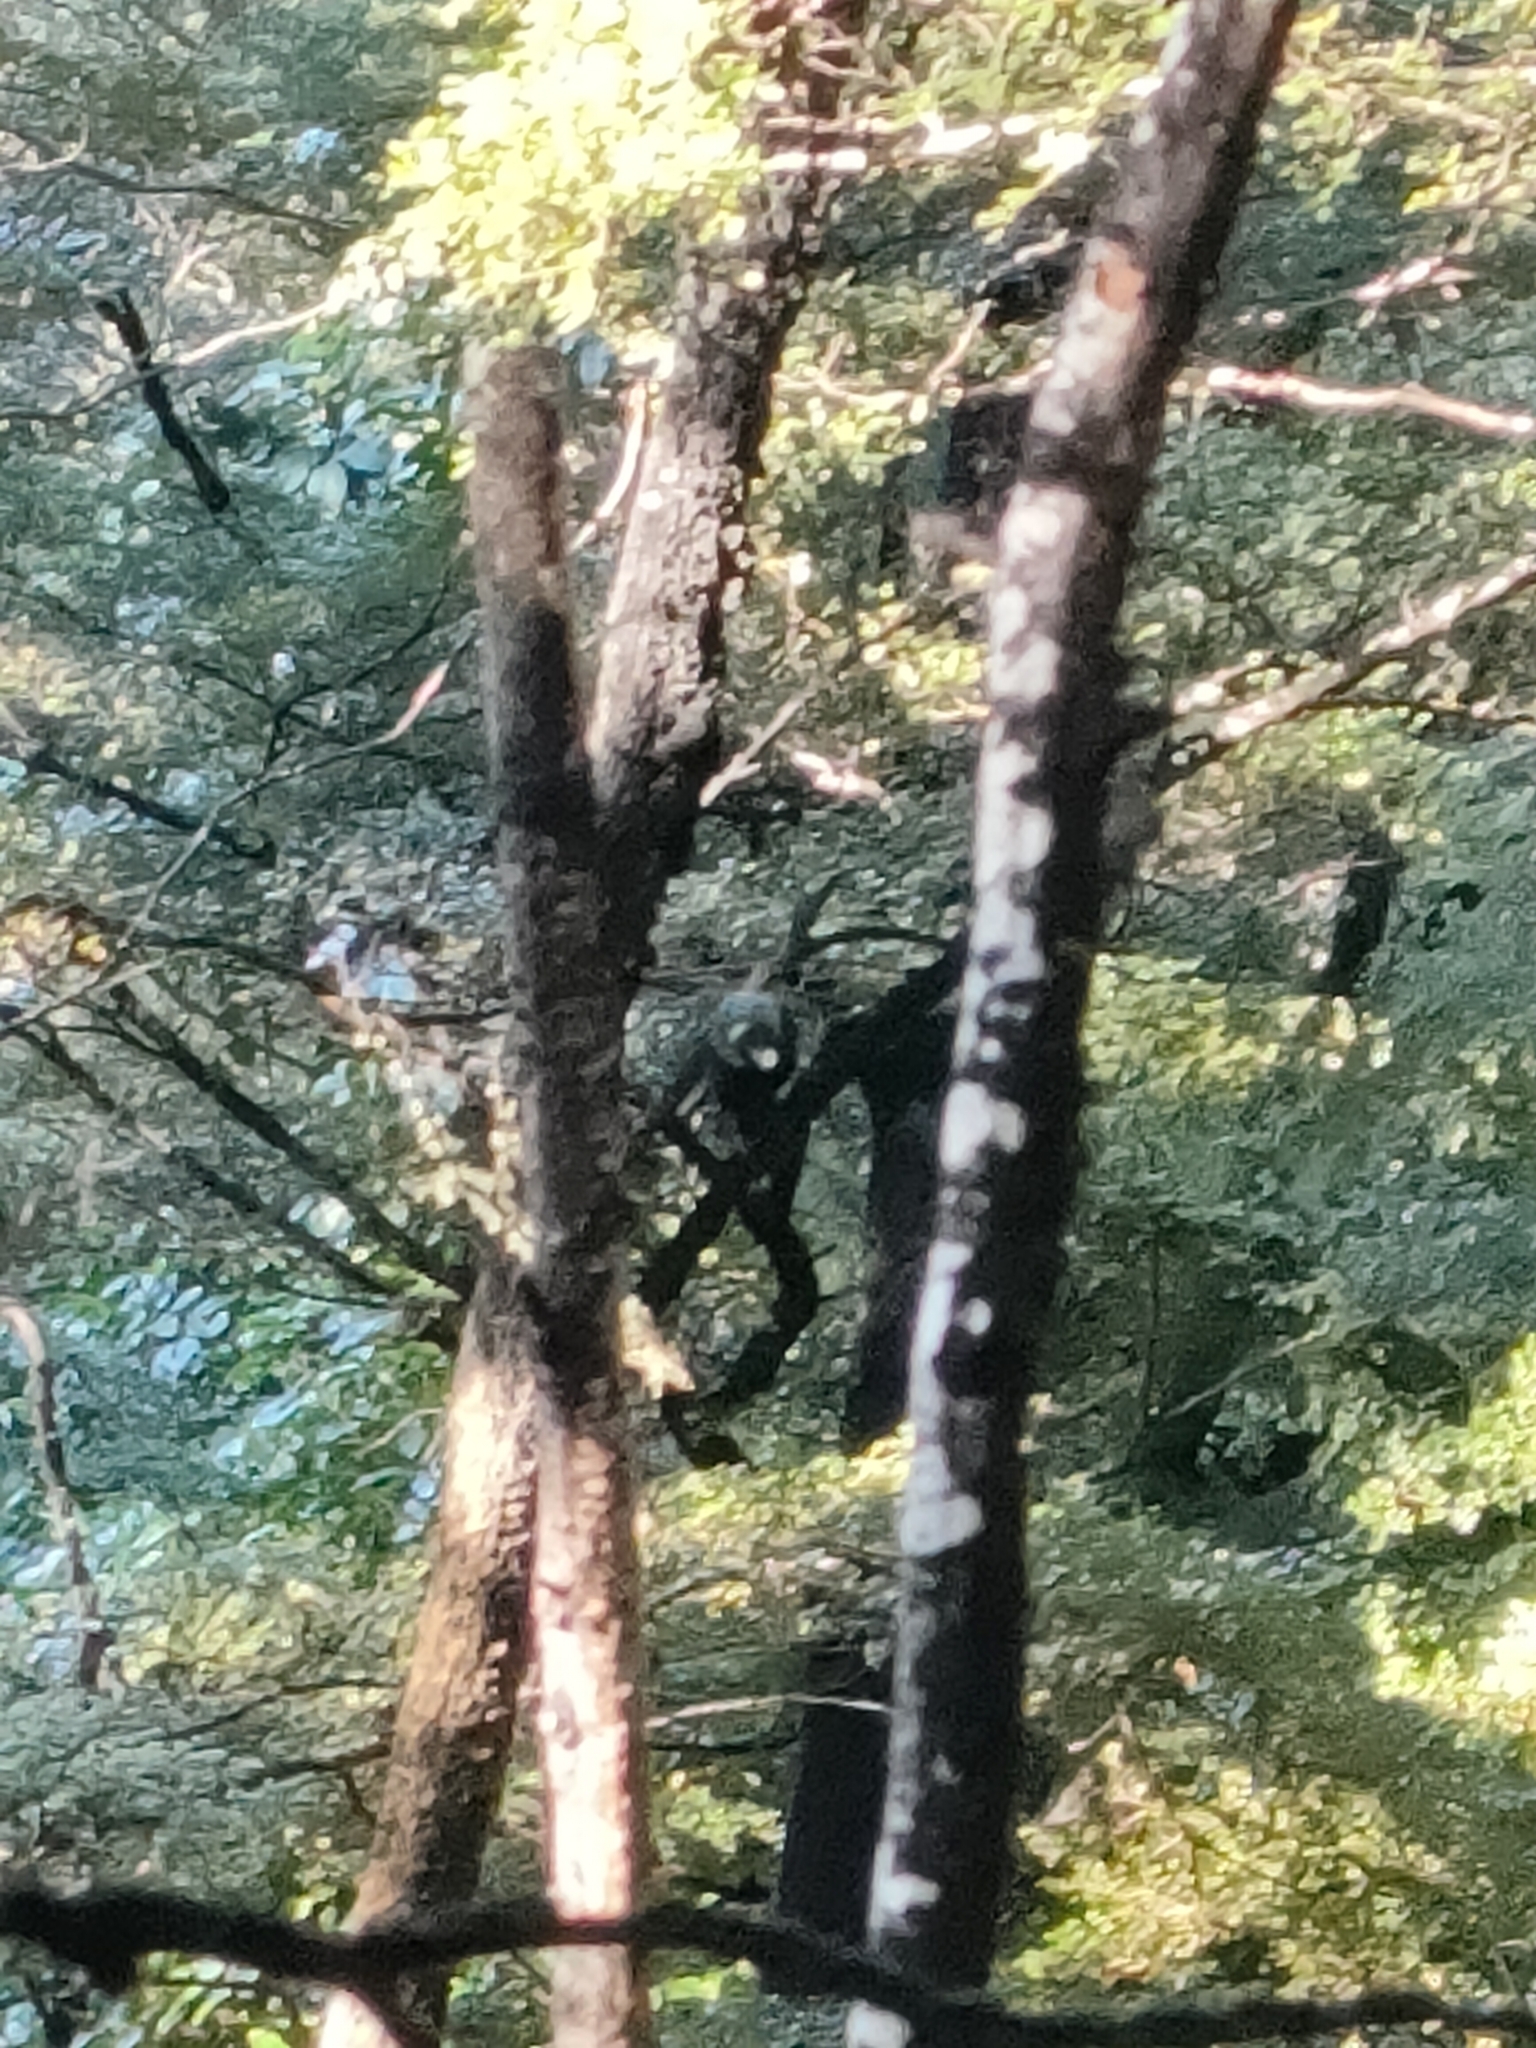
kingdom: Animalia
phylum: Chordata
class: Aves
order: Passeriformes
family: Meliphagidae
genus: Prosthemadera
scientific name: Prosthemadera novaeseelandiae
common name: Tui
